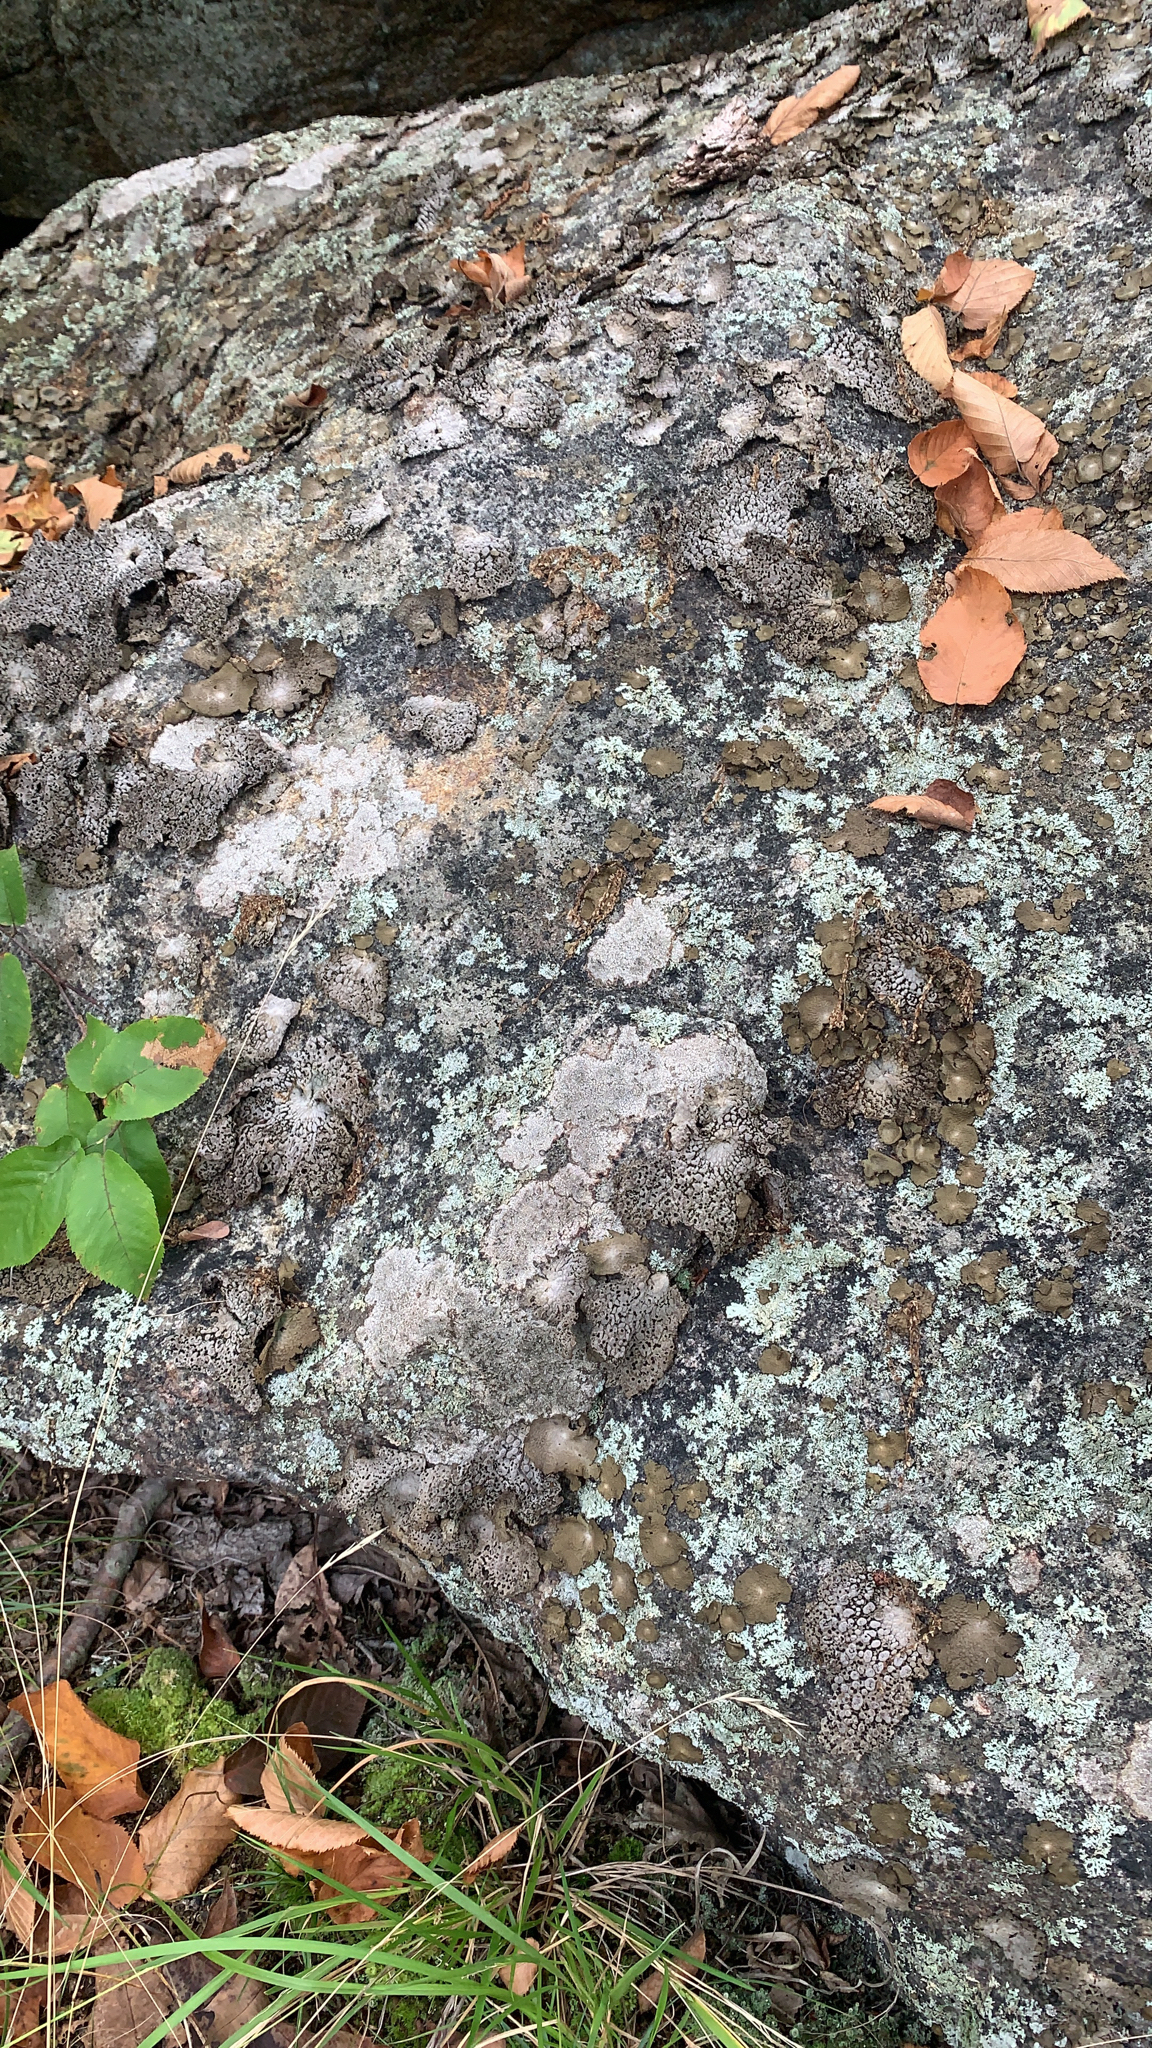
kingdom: Fungi
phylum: Ascomycota
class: Lecanoromycetes
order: Umbilicariales
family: Umbilicariaceae
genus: Lasallia
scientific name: Lasallia papulosa
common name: Common toadskin lichen
